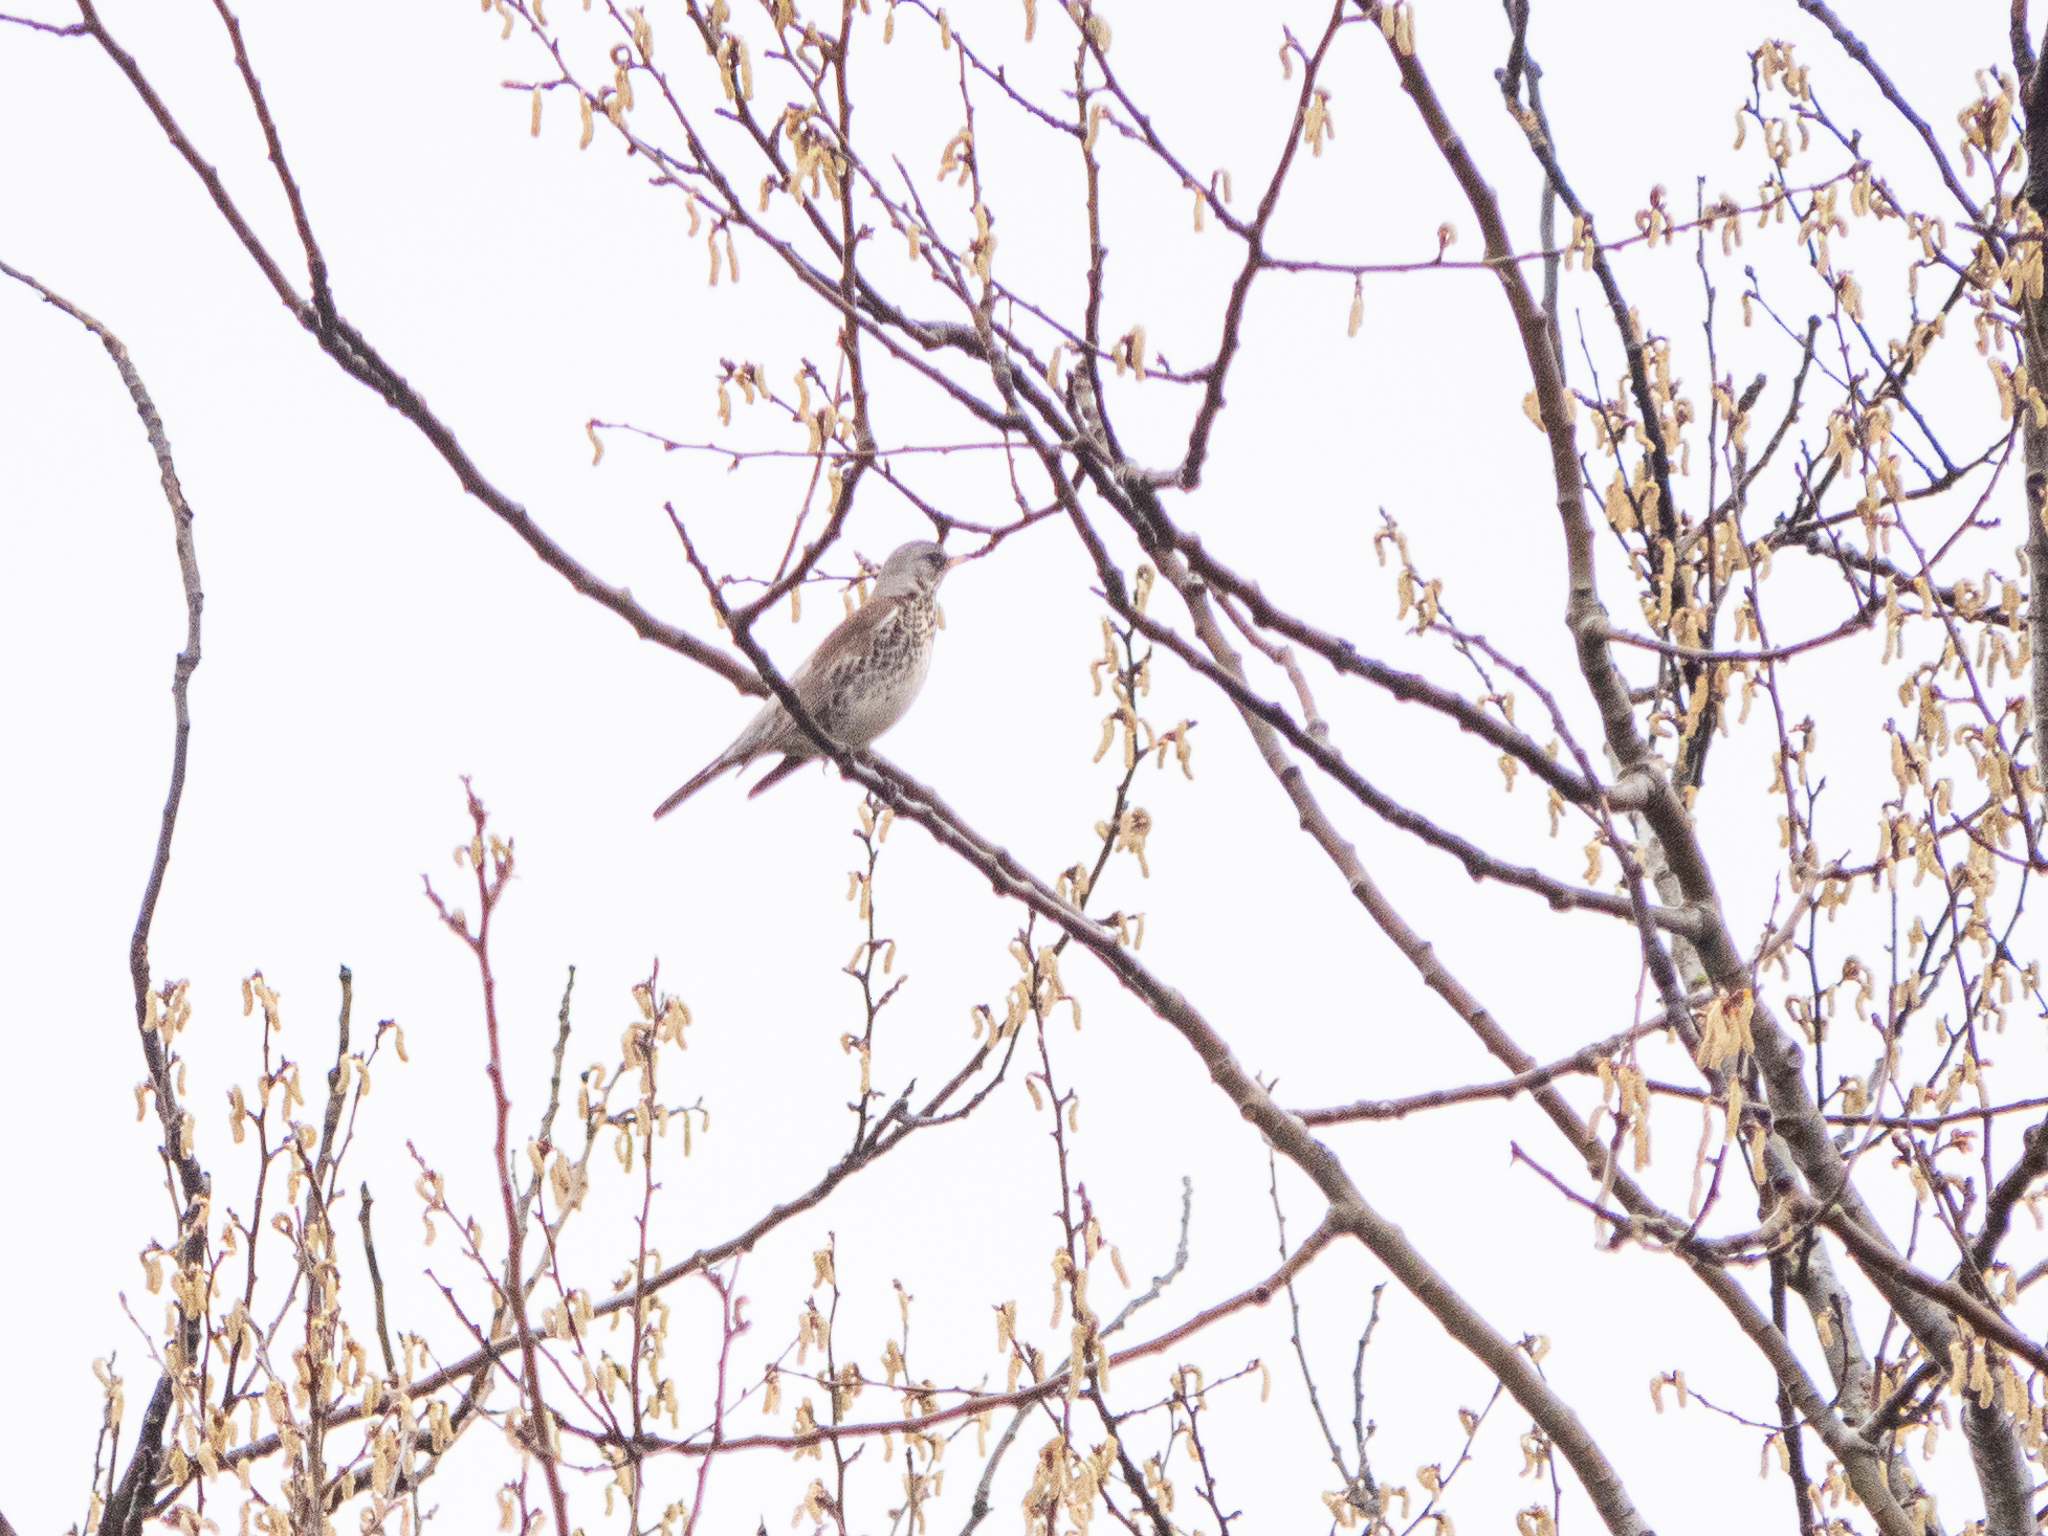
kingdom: Animalia
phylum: Chordata
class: Aves
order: Passeriformes
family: Turdidae
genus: Turdus
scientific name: Turdus pilaris
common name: Fieldfare
